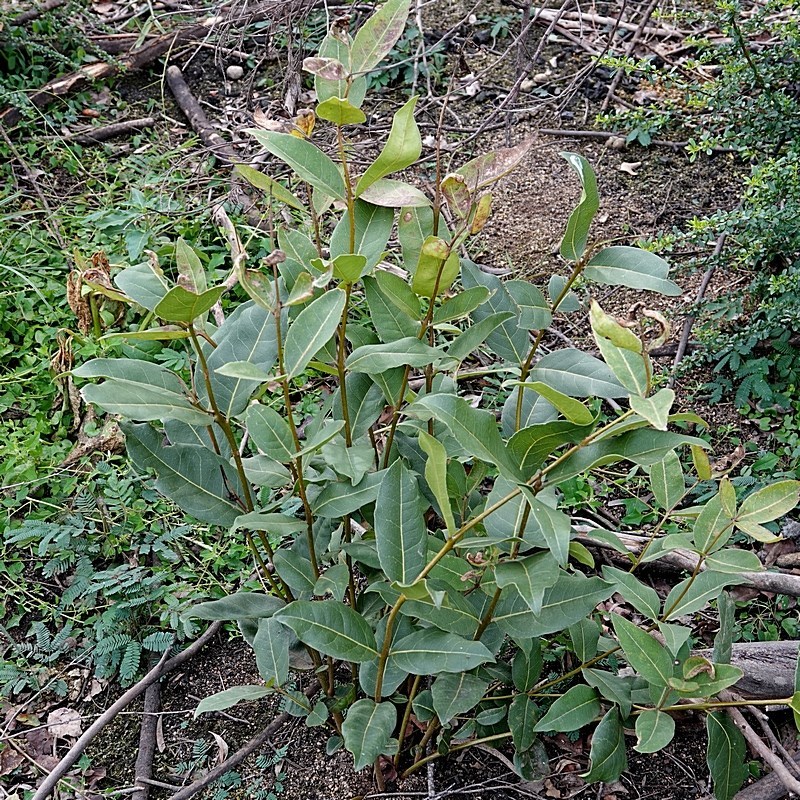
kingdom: Plantae
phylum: Tracheophyta
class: Magnoliopsida
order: Lamiales
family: Oleaceae
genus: Notelaea
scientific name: Notelaea venosa
